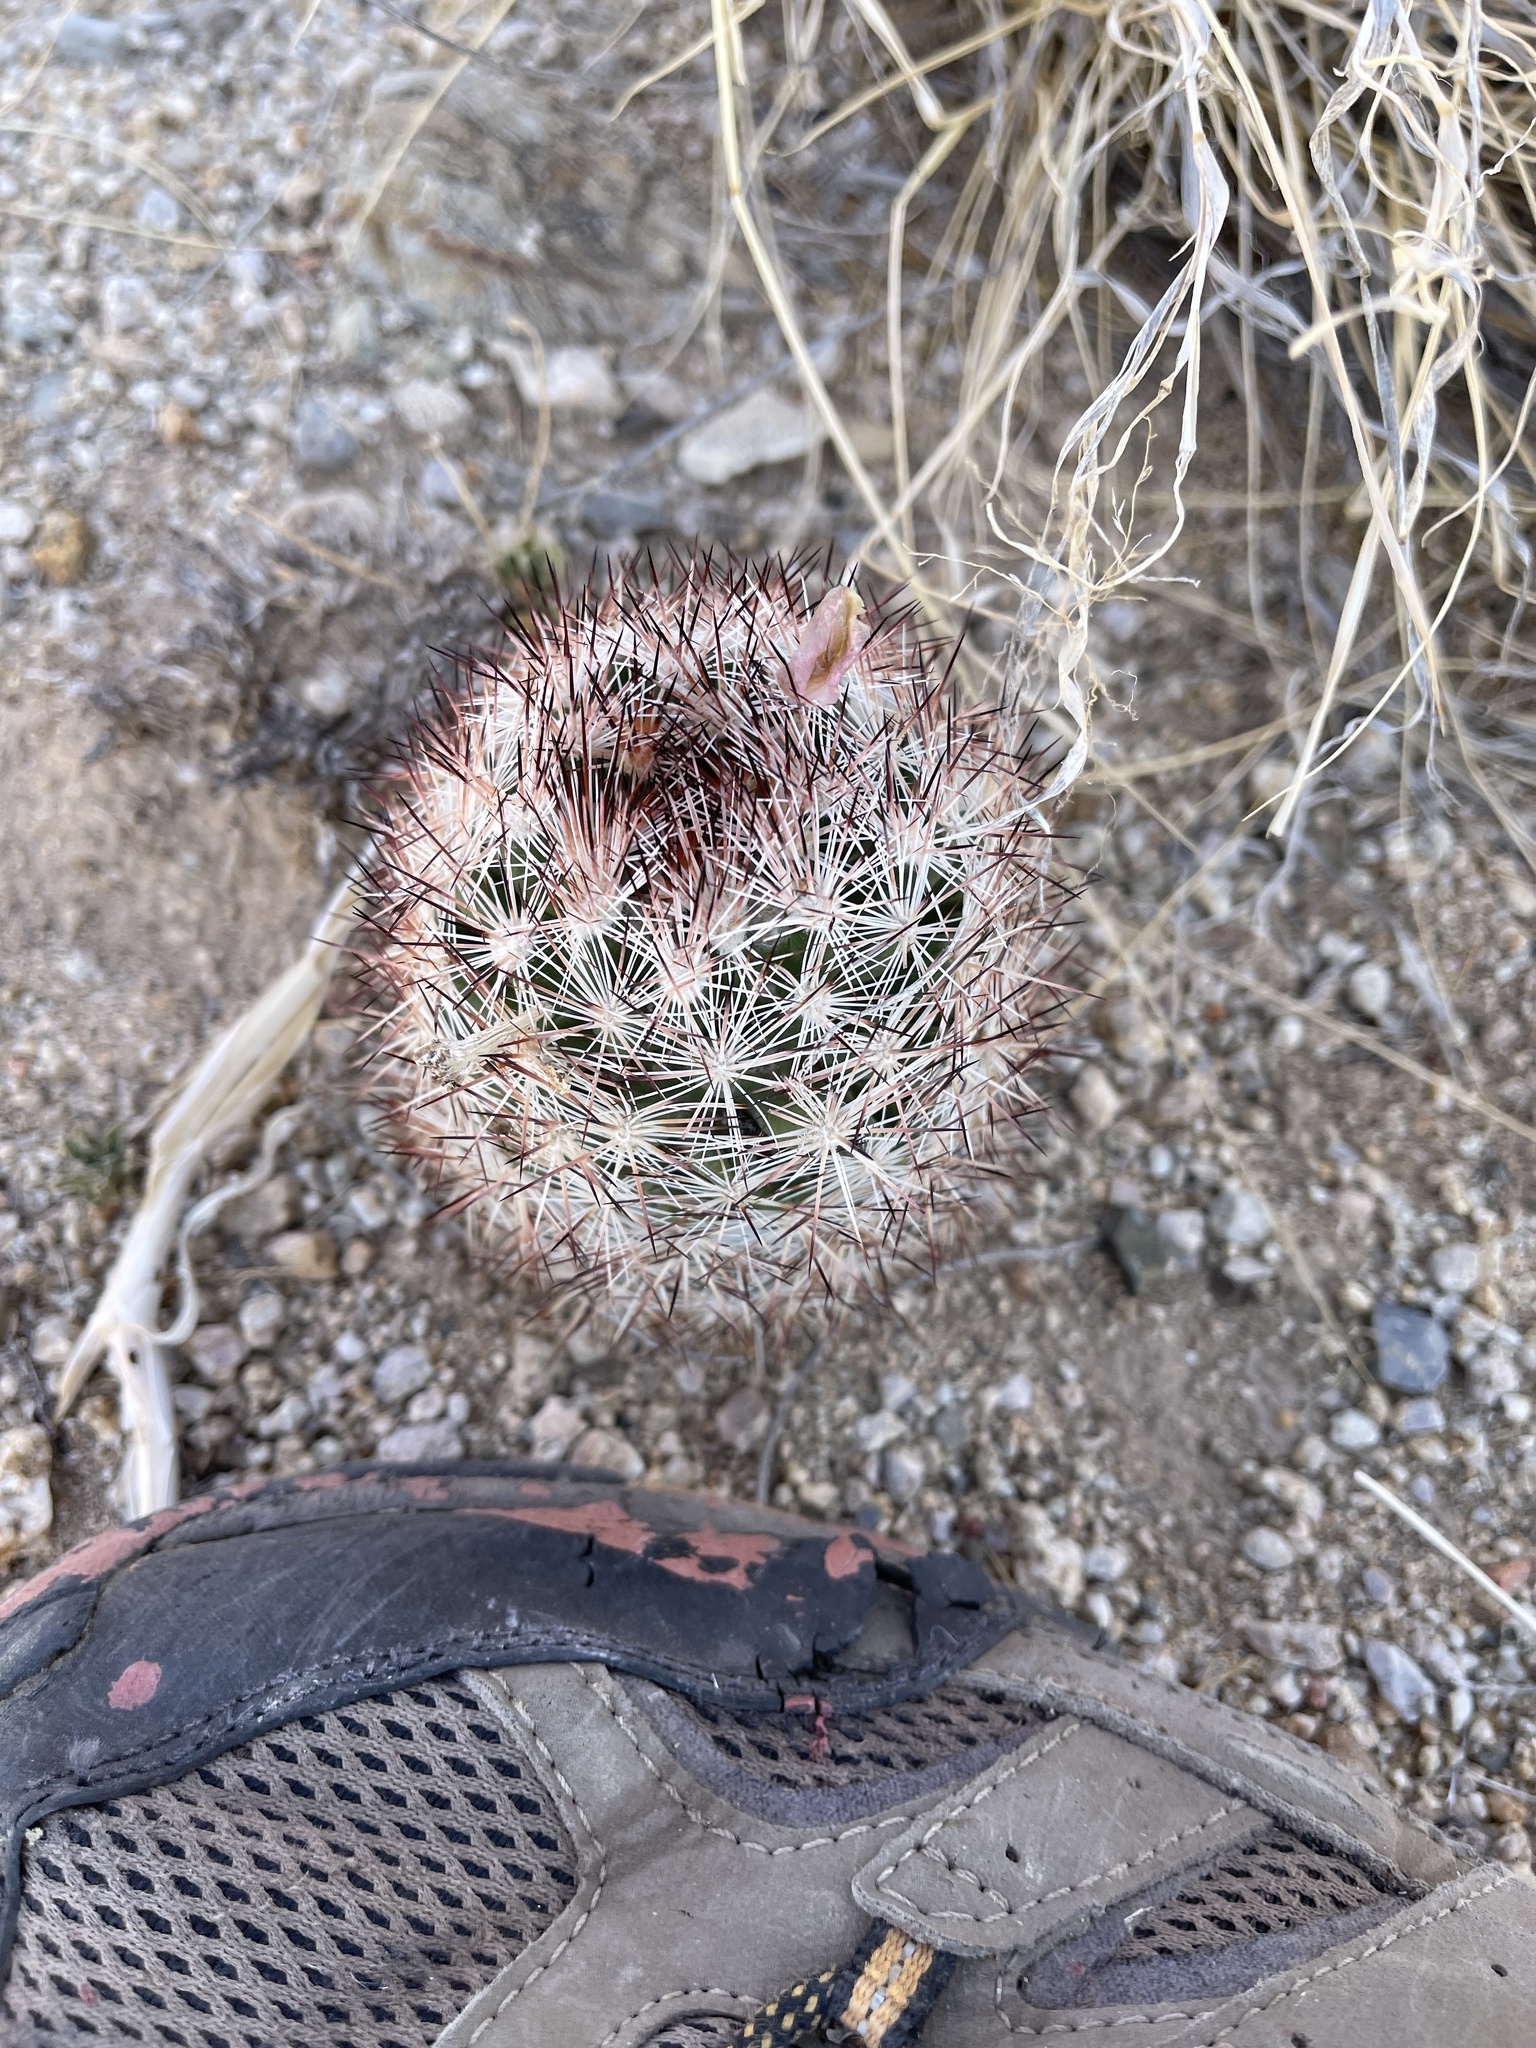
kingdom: Plantae
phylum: Tracheophyta
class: Magnoliopsida
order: Caryophyllales
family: Cactaceae
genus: Pelecyphora
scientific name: Pelecyphora vivipara
